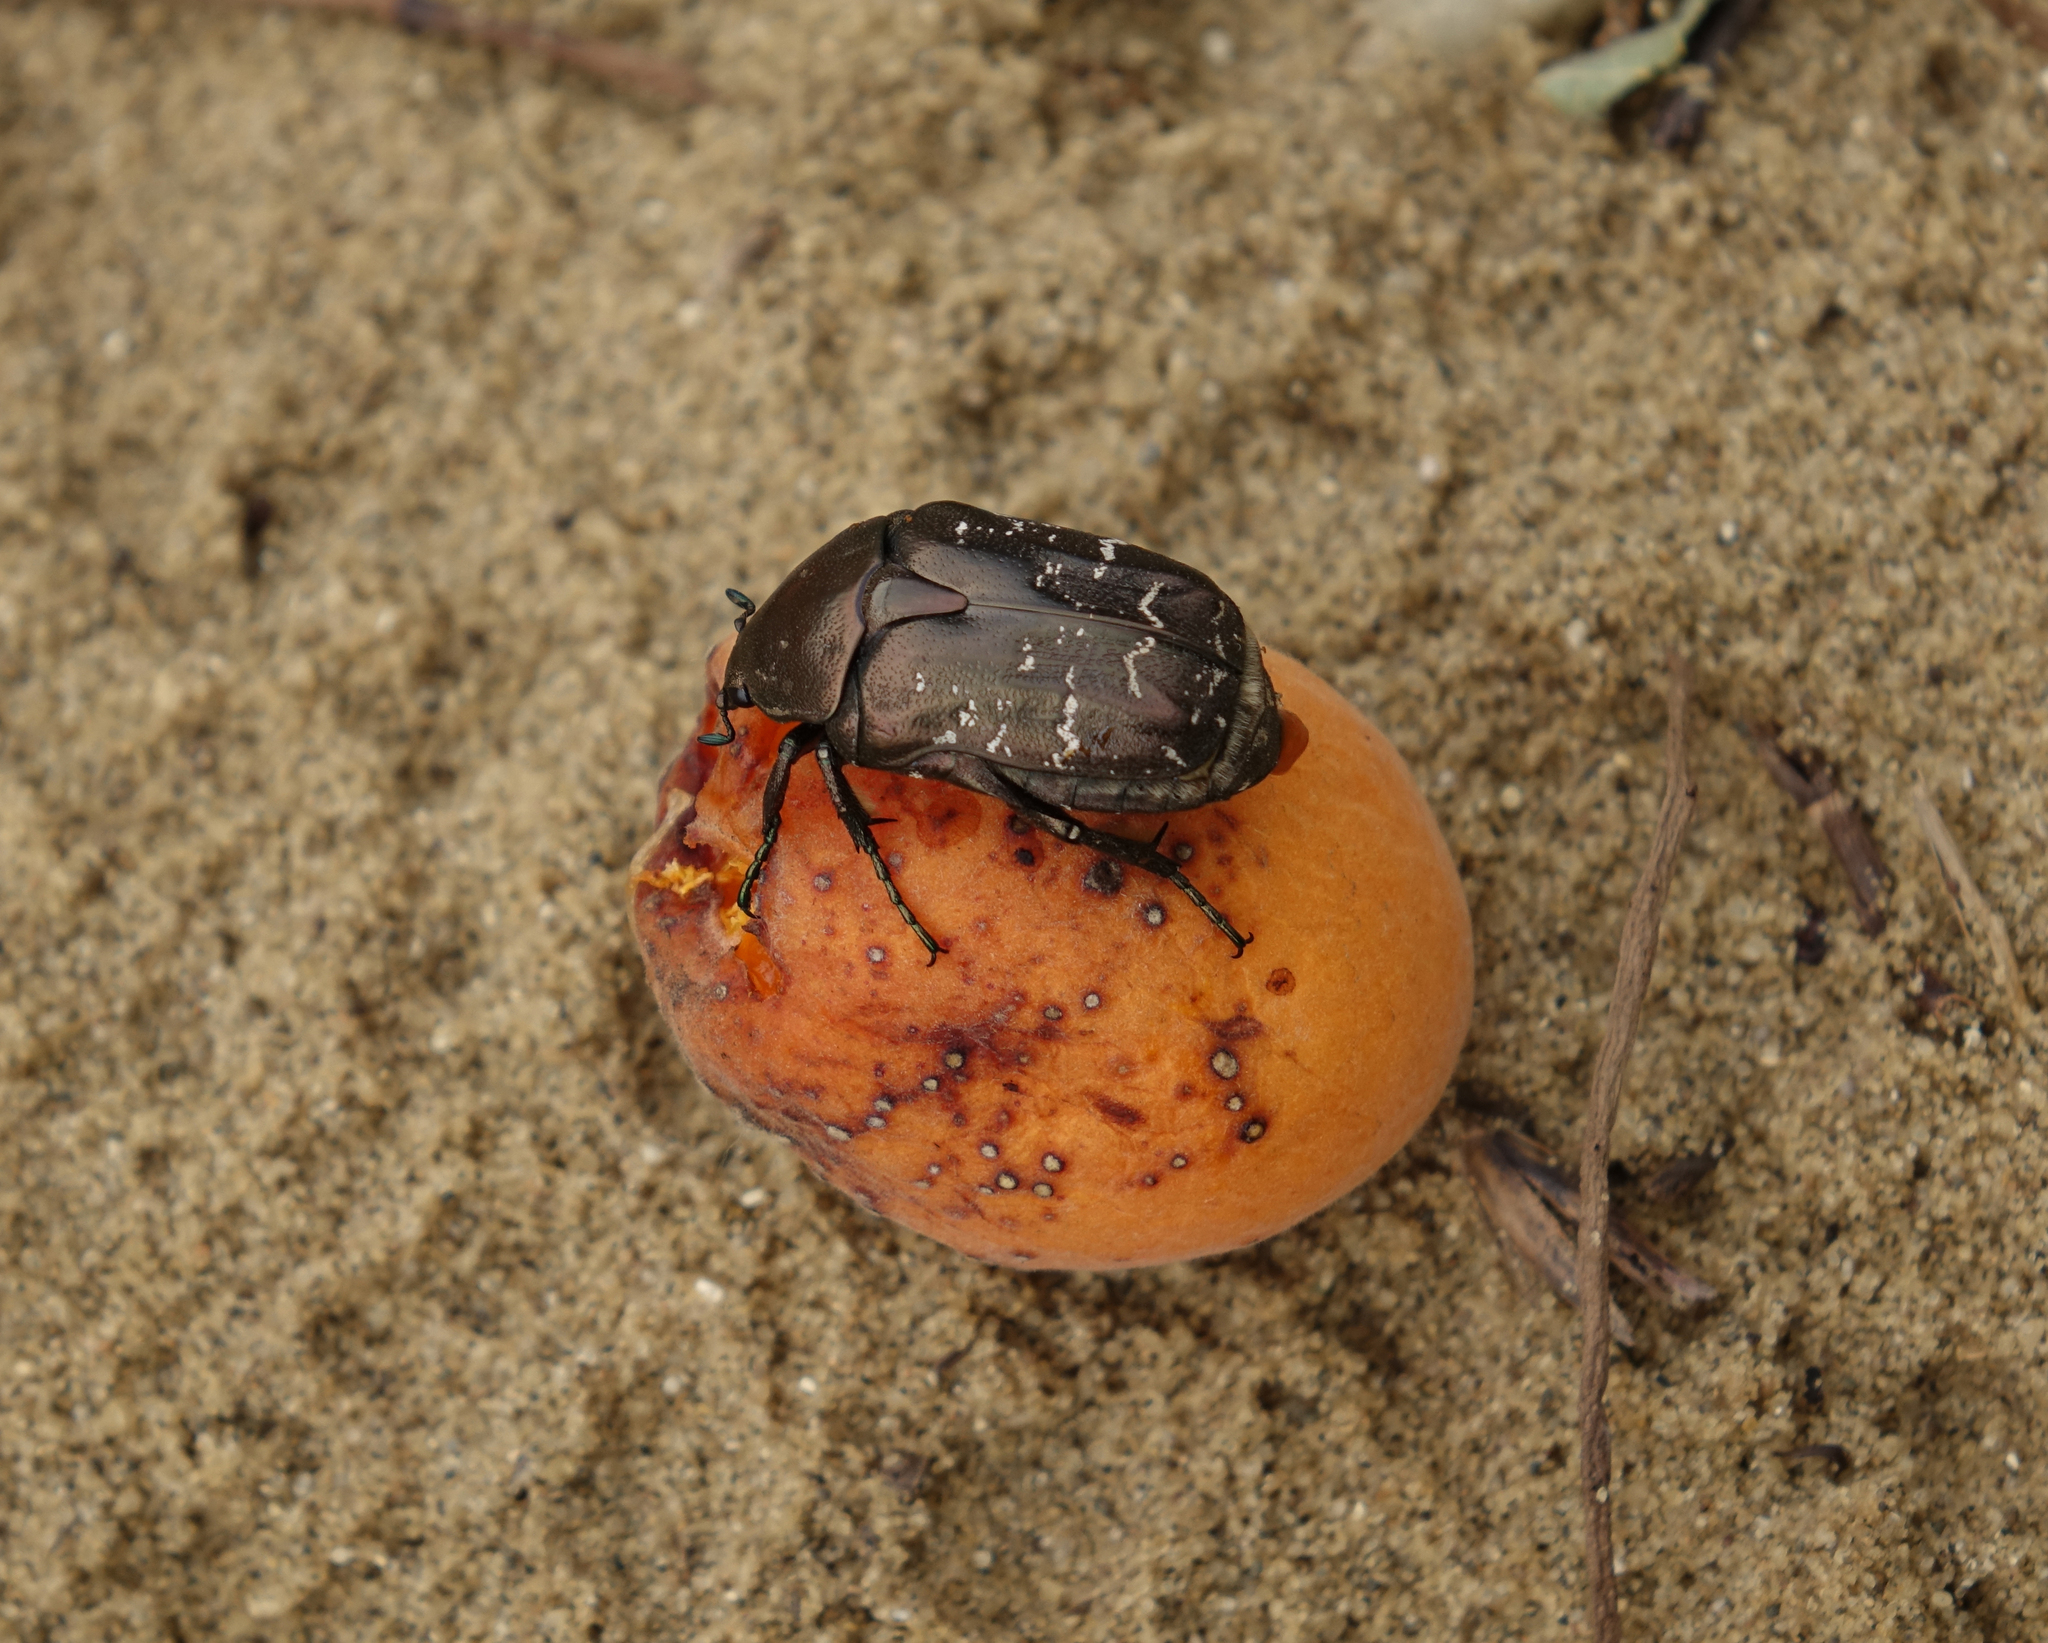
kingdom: Animalia
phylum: Arthropoda
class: Insecta
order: Coleoptera
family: Scarabaeidae
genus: Protaetia
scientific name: Protaetia cuprea
